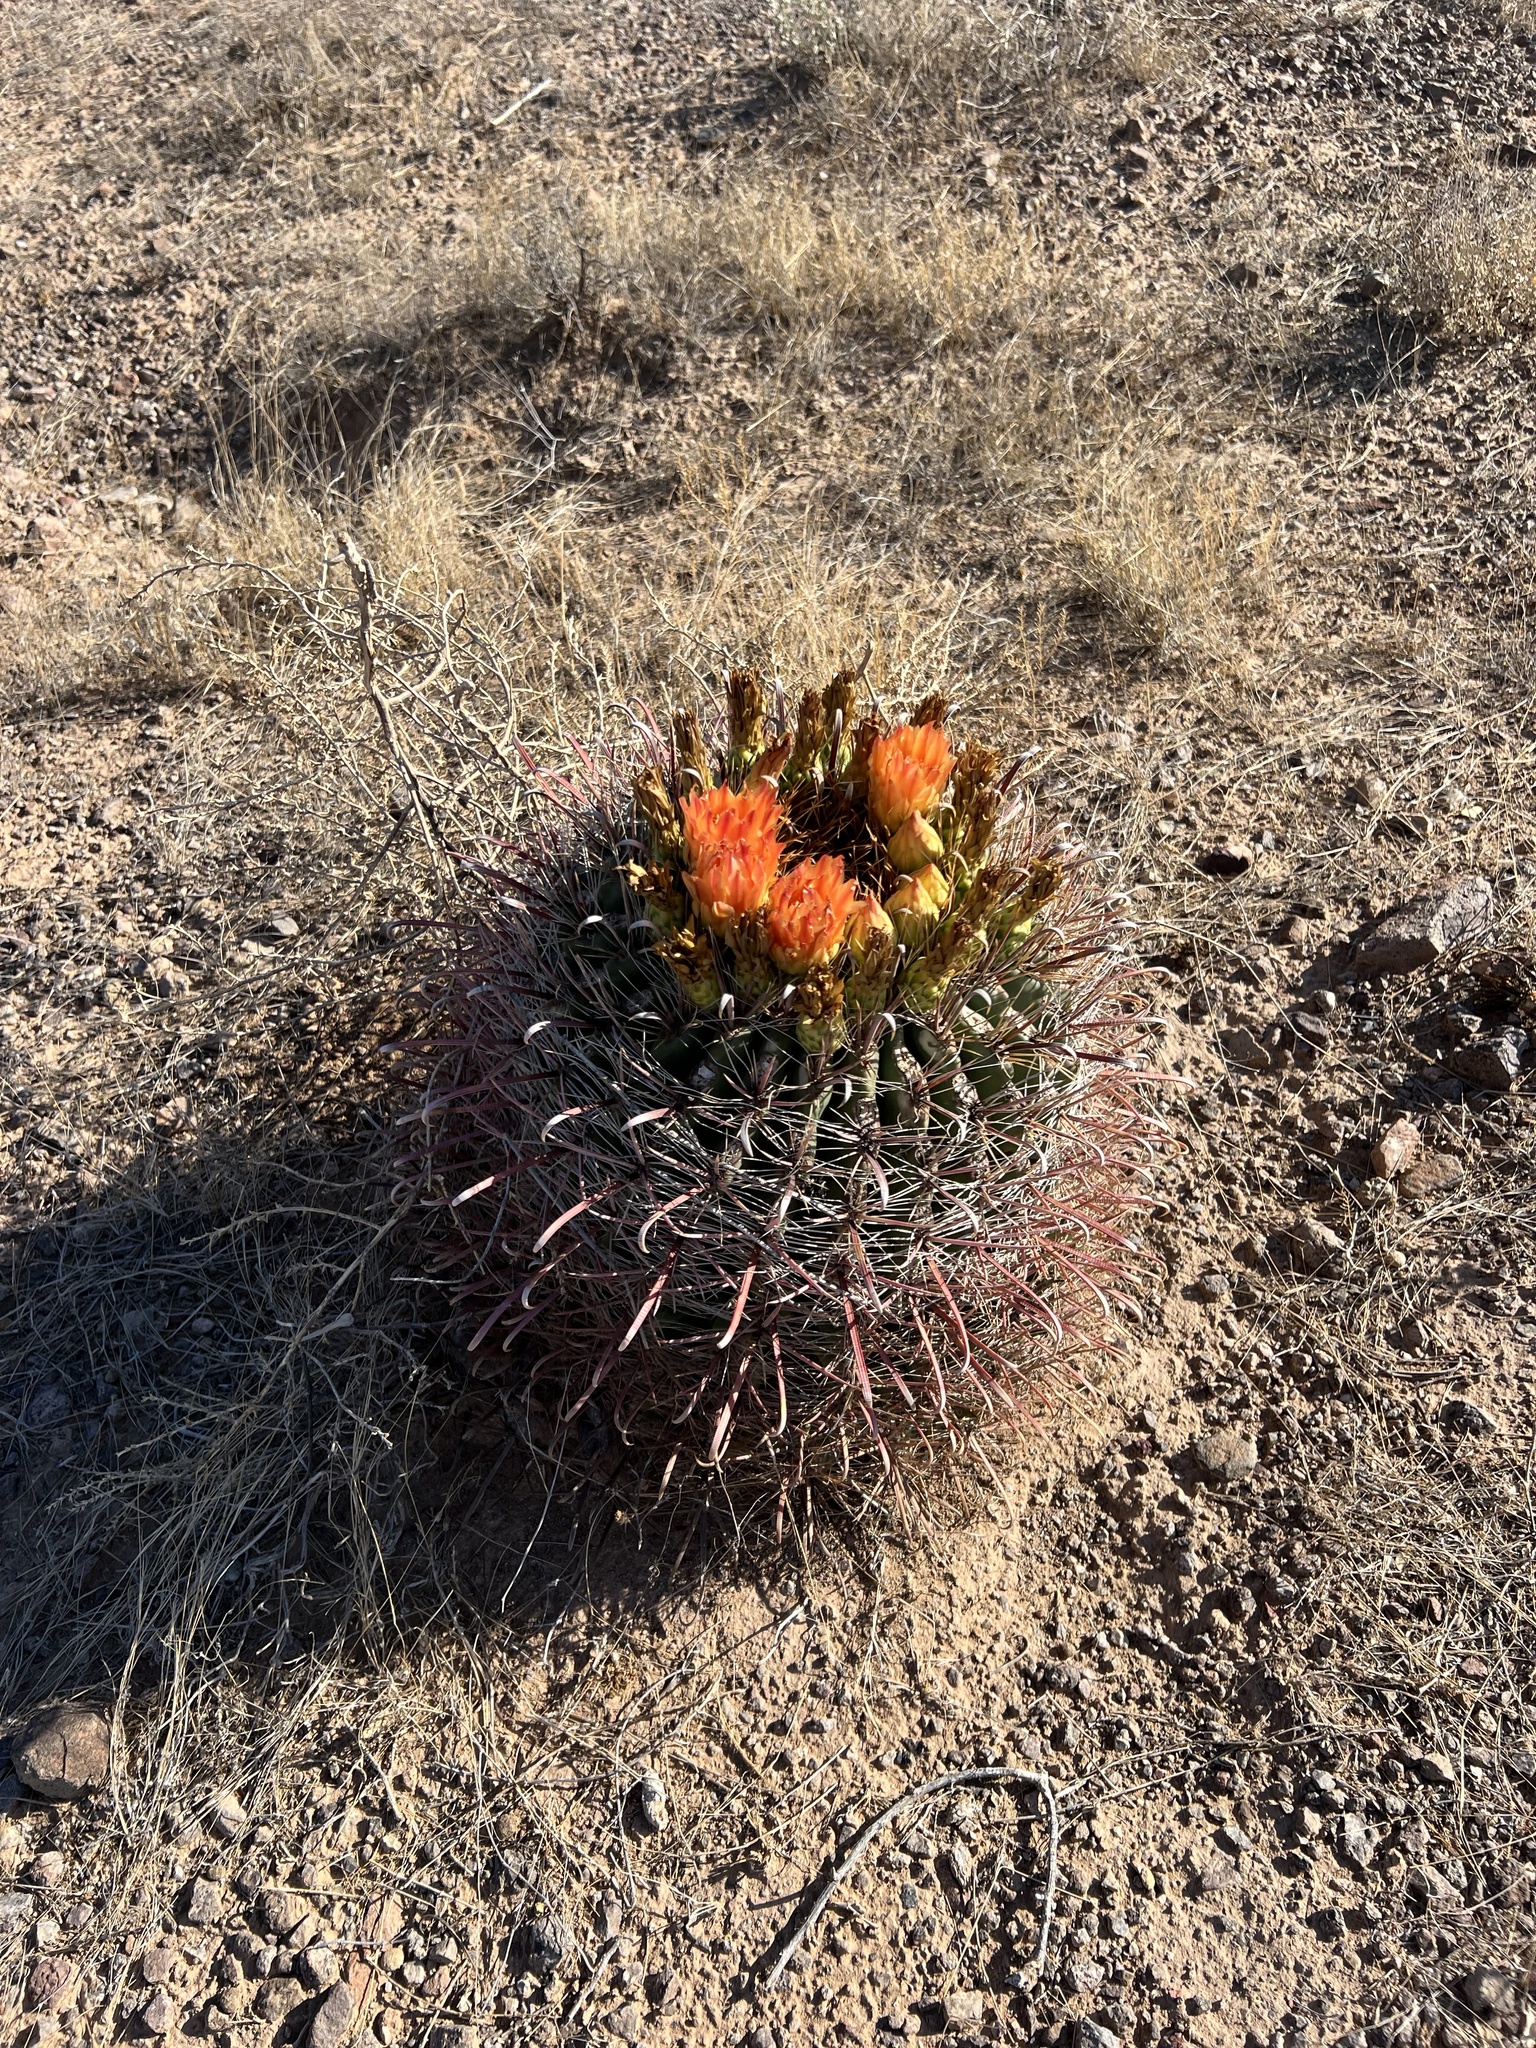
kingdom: Plantae
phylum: Tracheophyta
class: Magnoliopsida
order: Caryophyllales
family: Cactaceae
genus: Ferocactus
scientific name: Ferocactus wislizeni
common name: Candy barrel cactus
